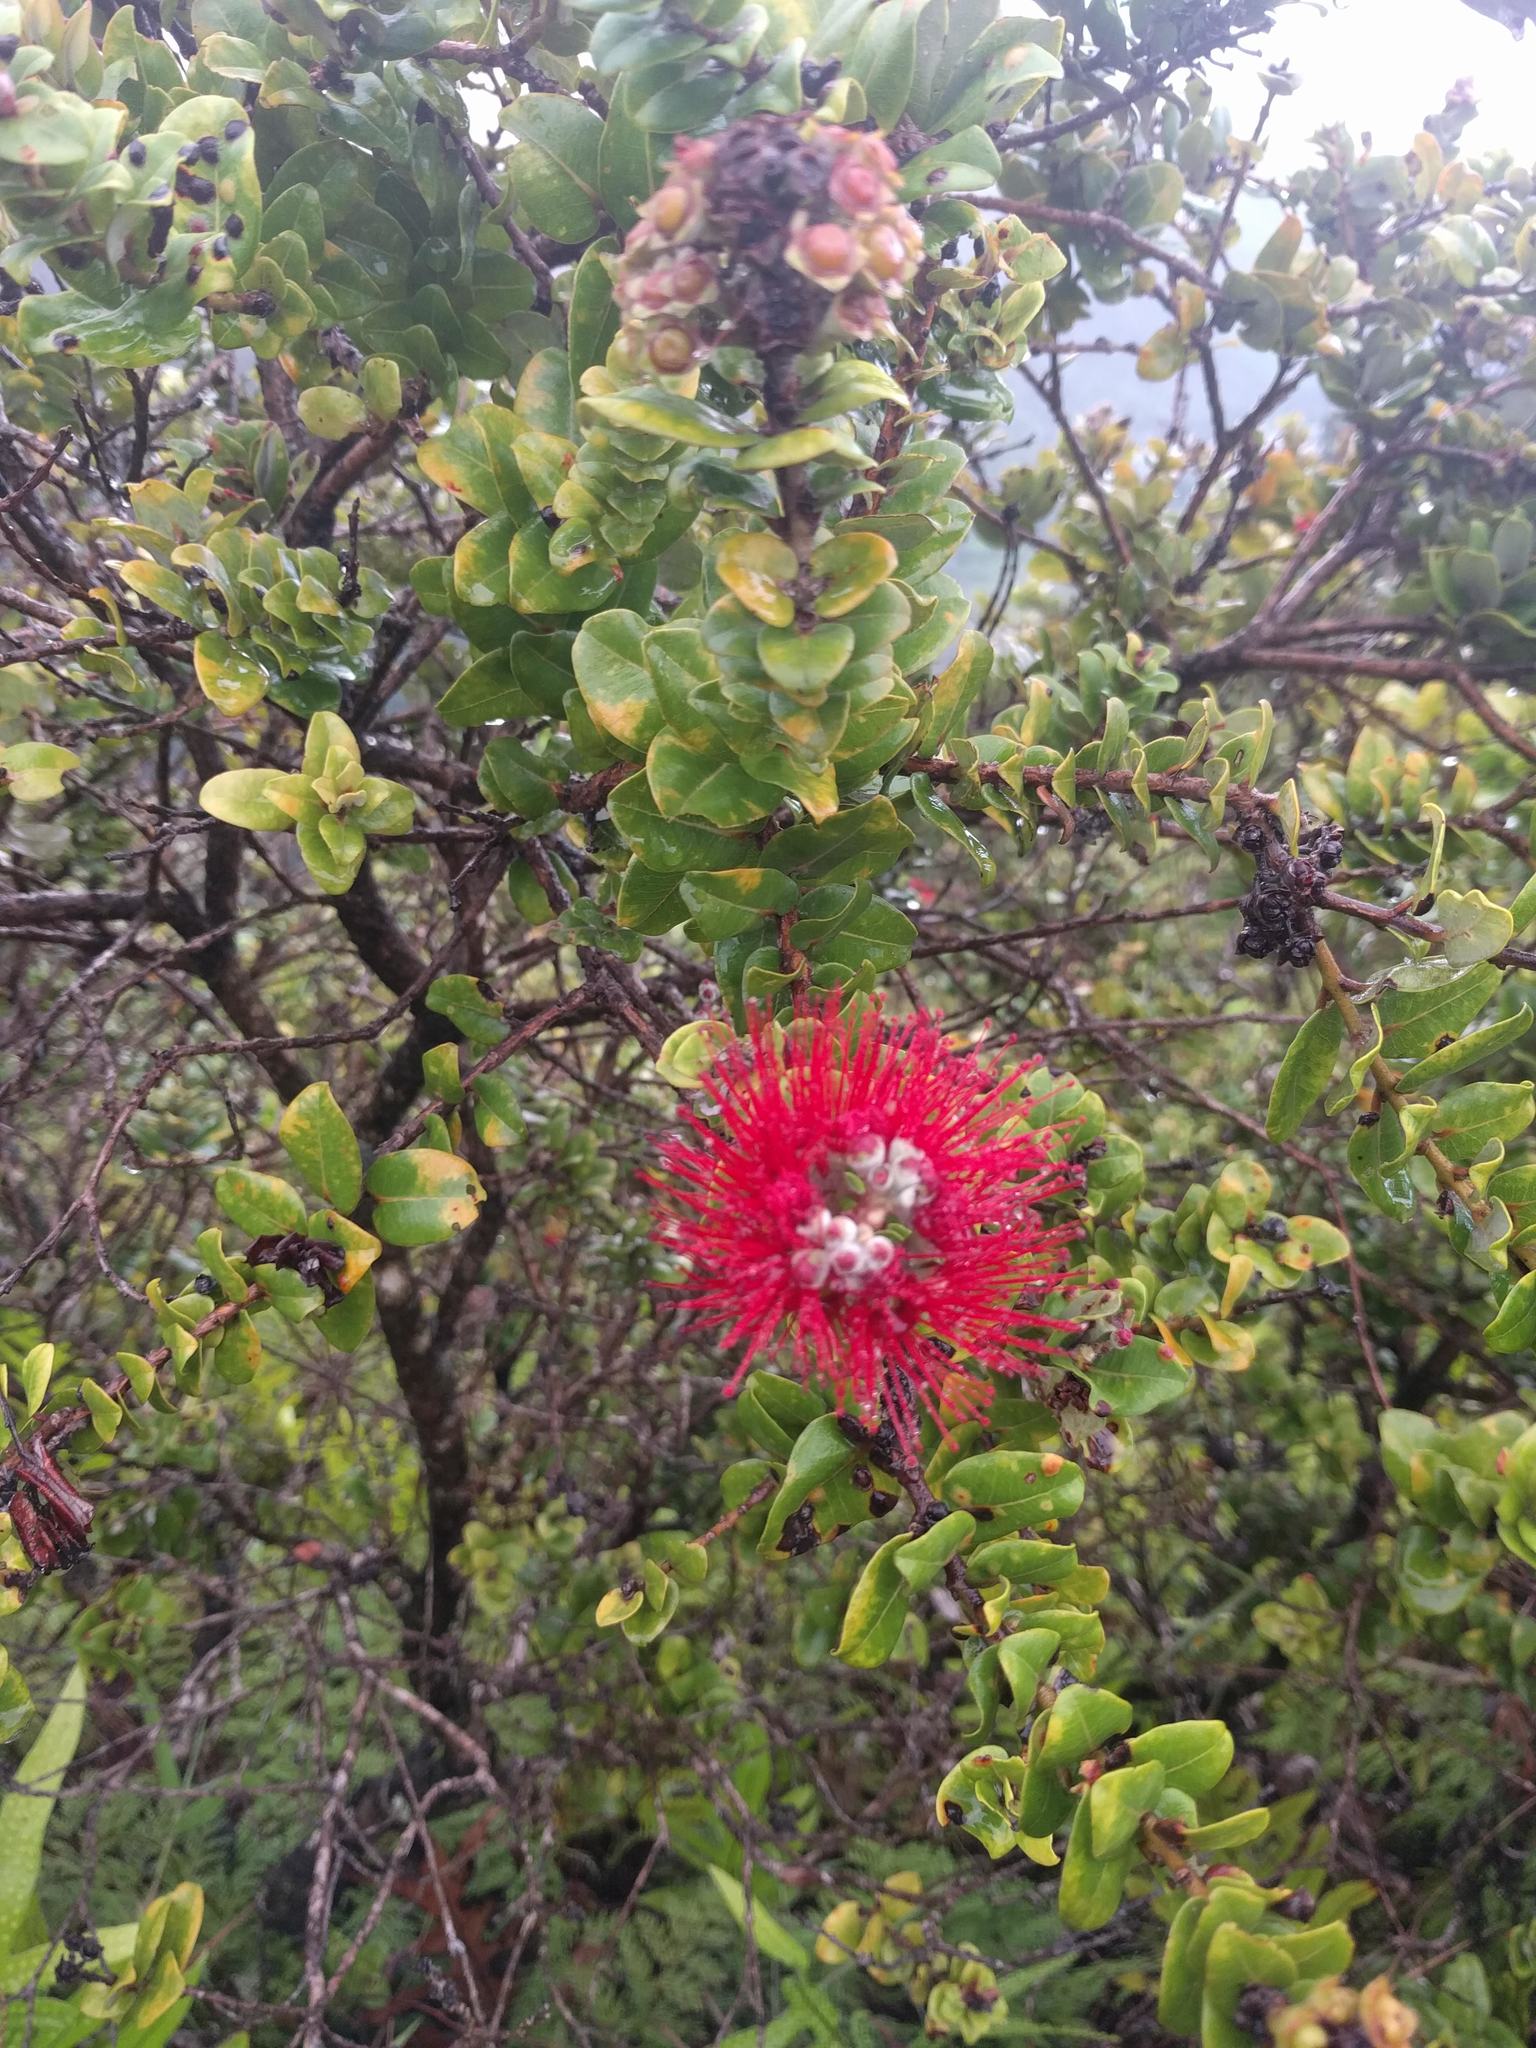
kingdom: Plantae
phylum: Tracheophyta
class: Magnoliopsida
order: Myrtales
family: Myrtaceae
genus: Metrosideros
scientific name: Metrosideros polymorpha
